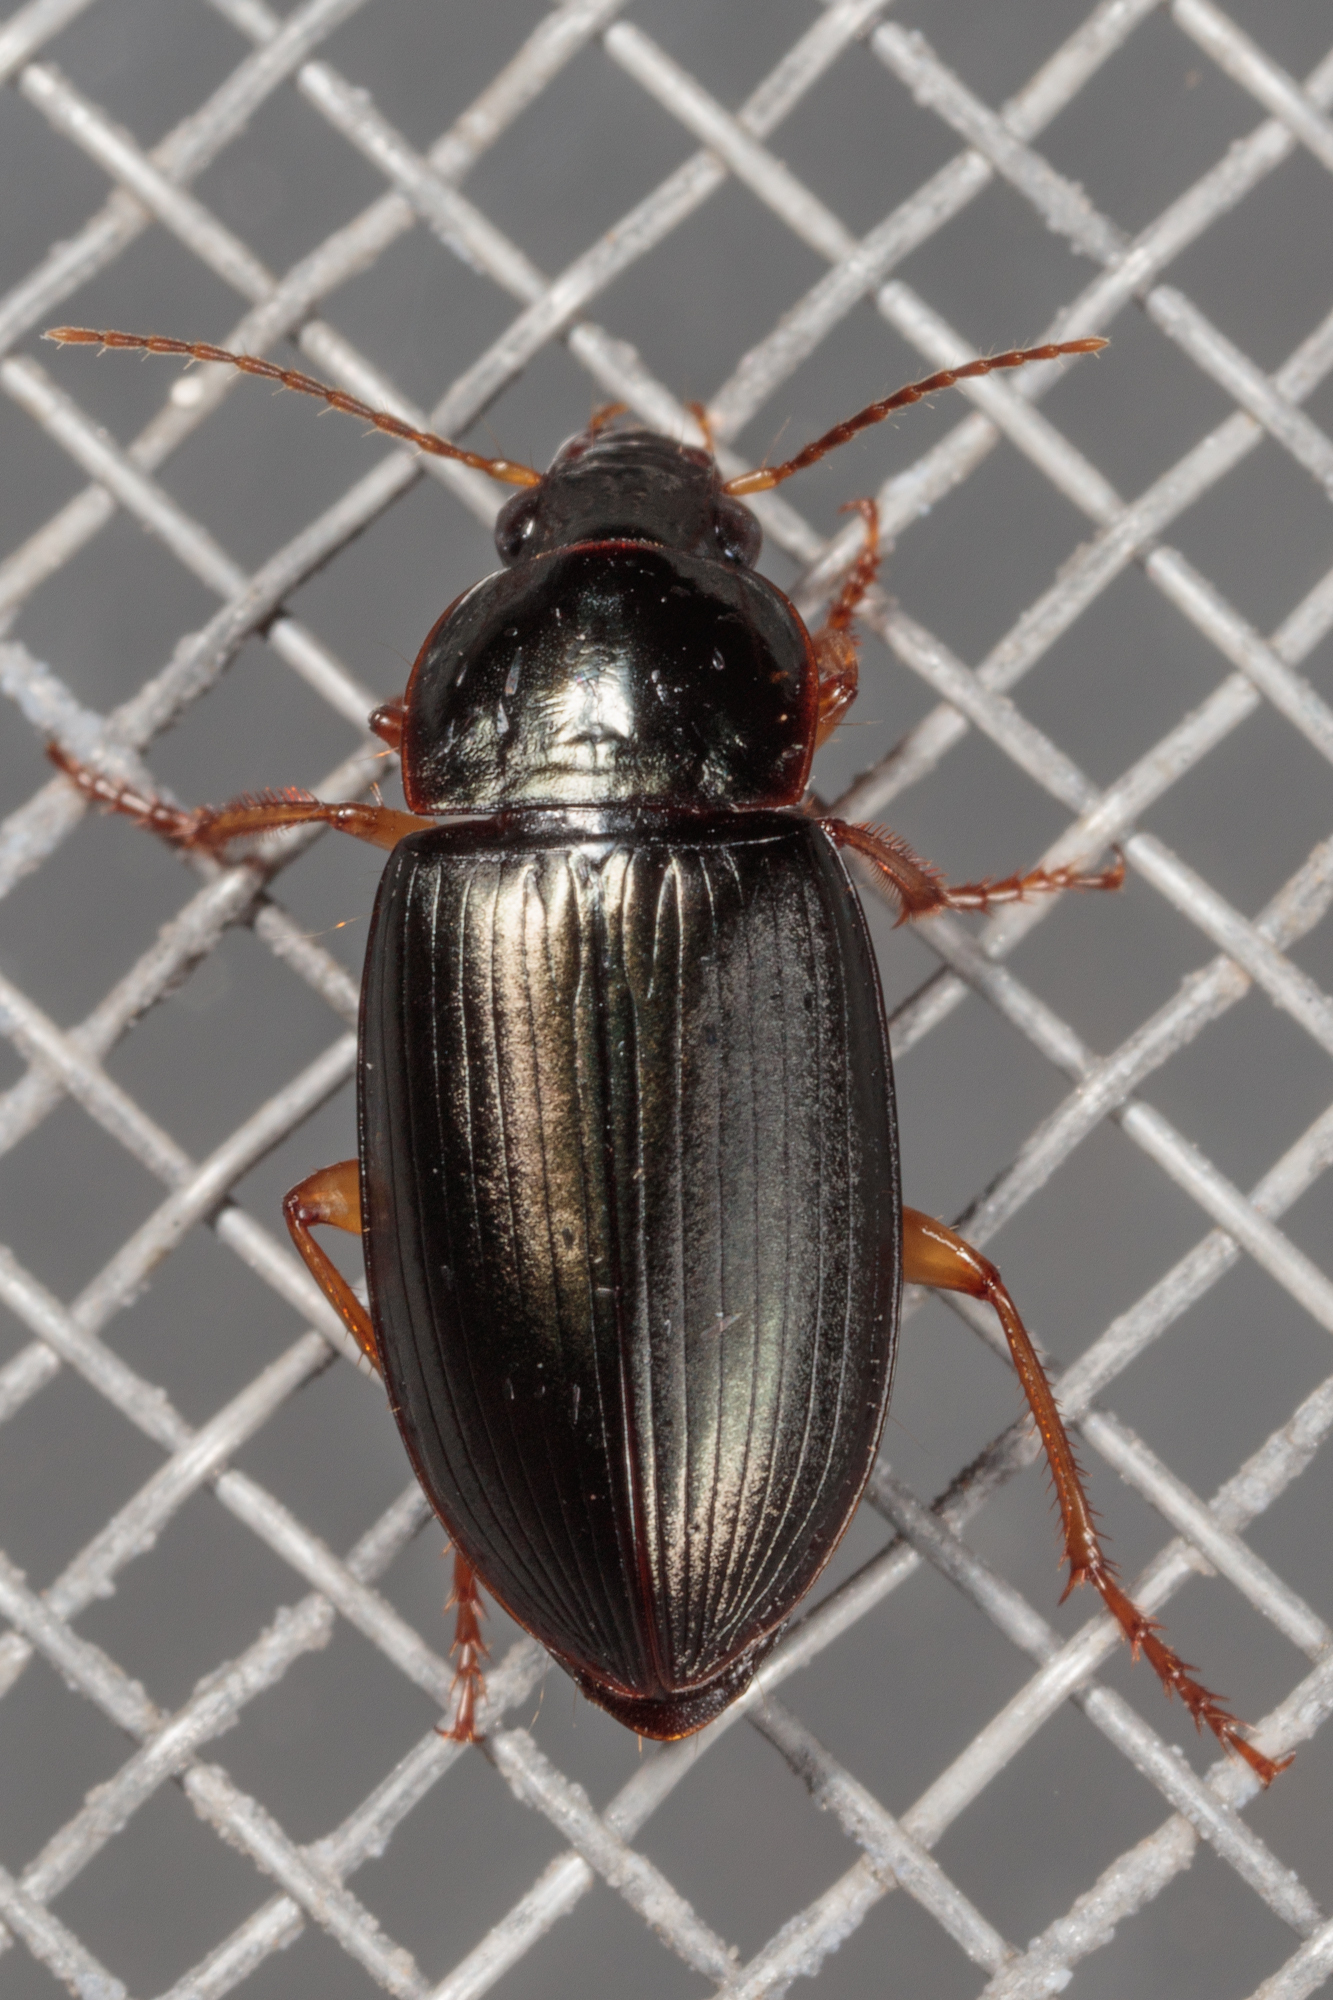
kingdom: Animalia
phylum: Arthropoda
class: Insecta
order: Coleoptera
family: Carabidae
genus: Notiobia
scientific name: Notiobia terminata
